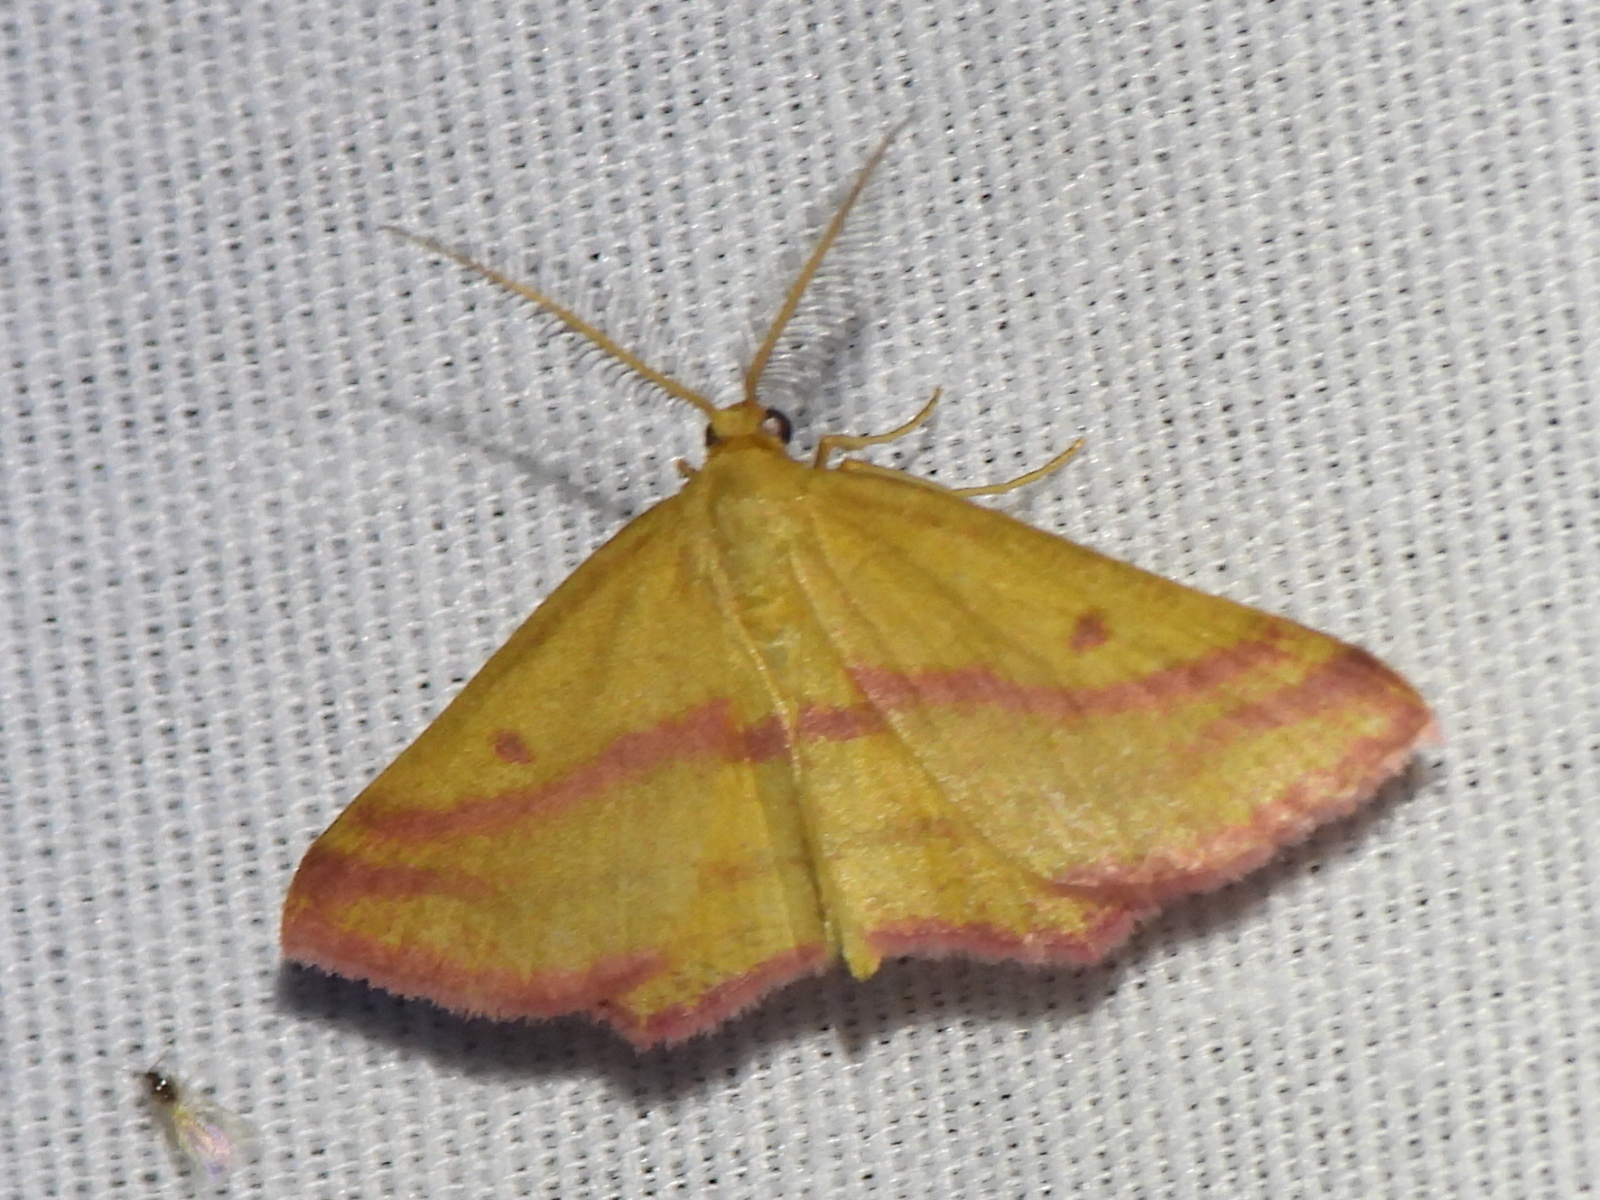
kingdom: Animalia
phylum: Arthropoda
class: Insecta
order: Lepidoptera
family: Geometridae
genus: Haematopis
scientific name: Haematopis grataria
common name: Chickweed geometer
